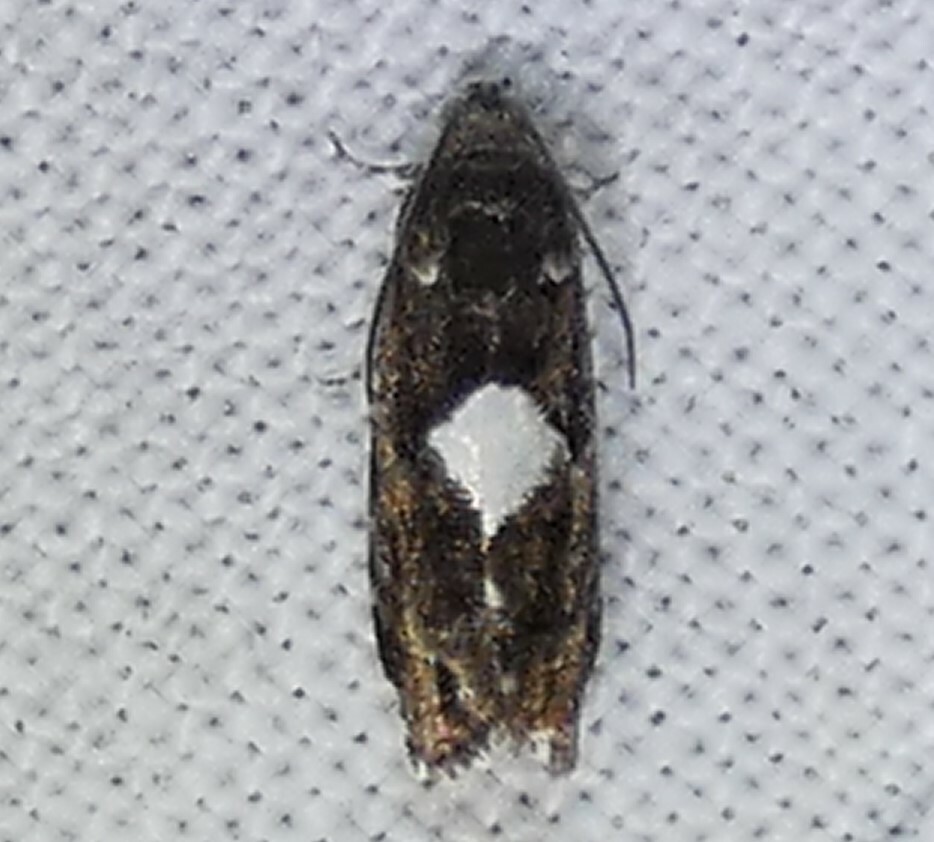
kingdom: Animalia
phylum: Arthropoda
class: Insecta
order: Lepidoptera
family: Tortricidae
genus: Cydia
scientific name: Cydia albimaculana
